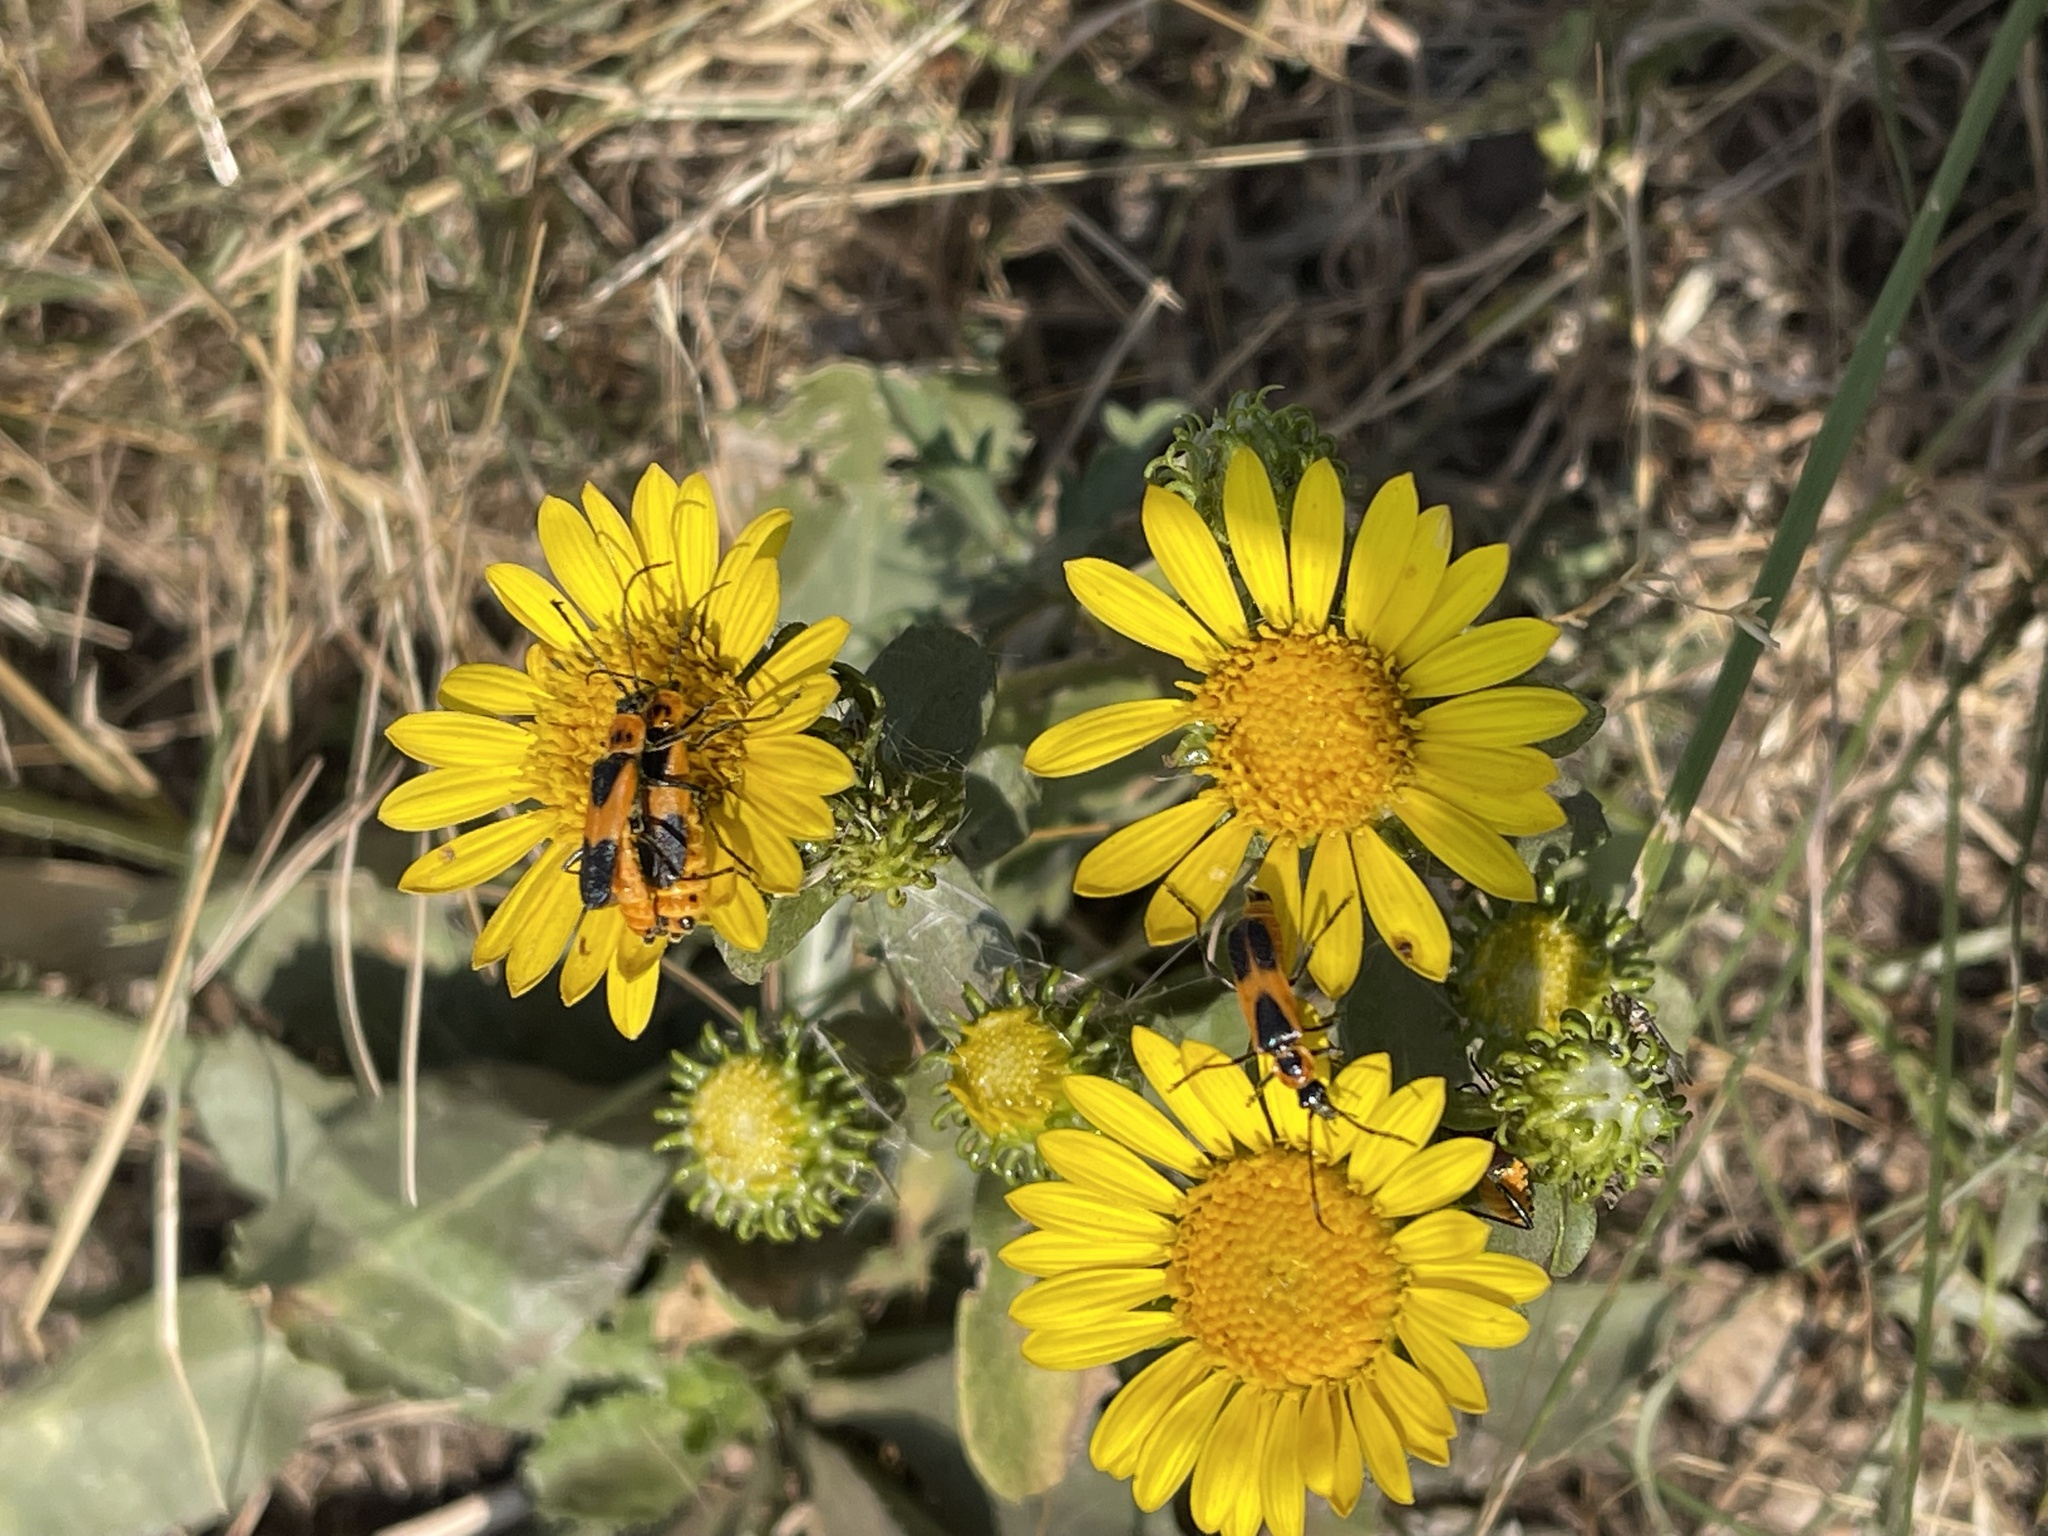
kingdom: Animalia
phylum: Arthropoda
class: Insecta
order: Coleoptera
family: Cantharidae
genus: Chauliognathus
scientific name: Chauliognathus basalis
